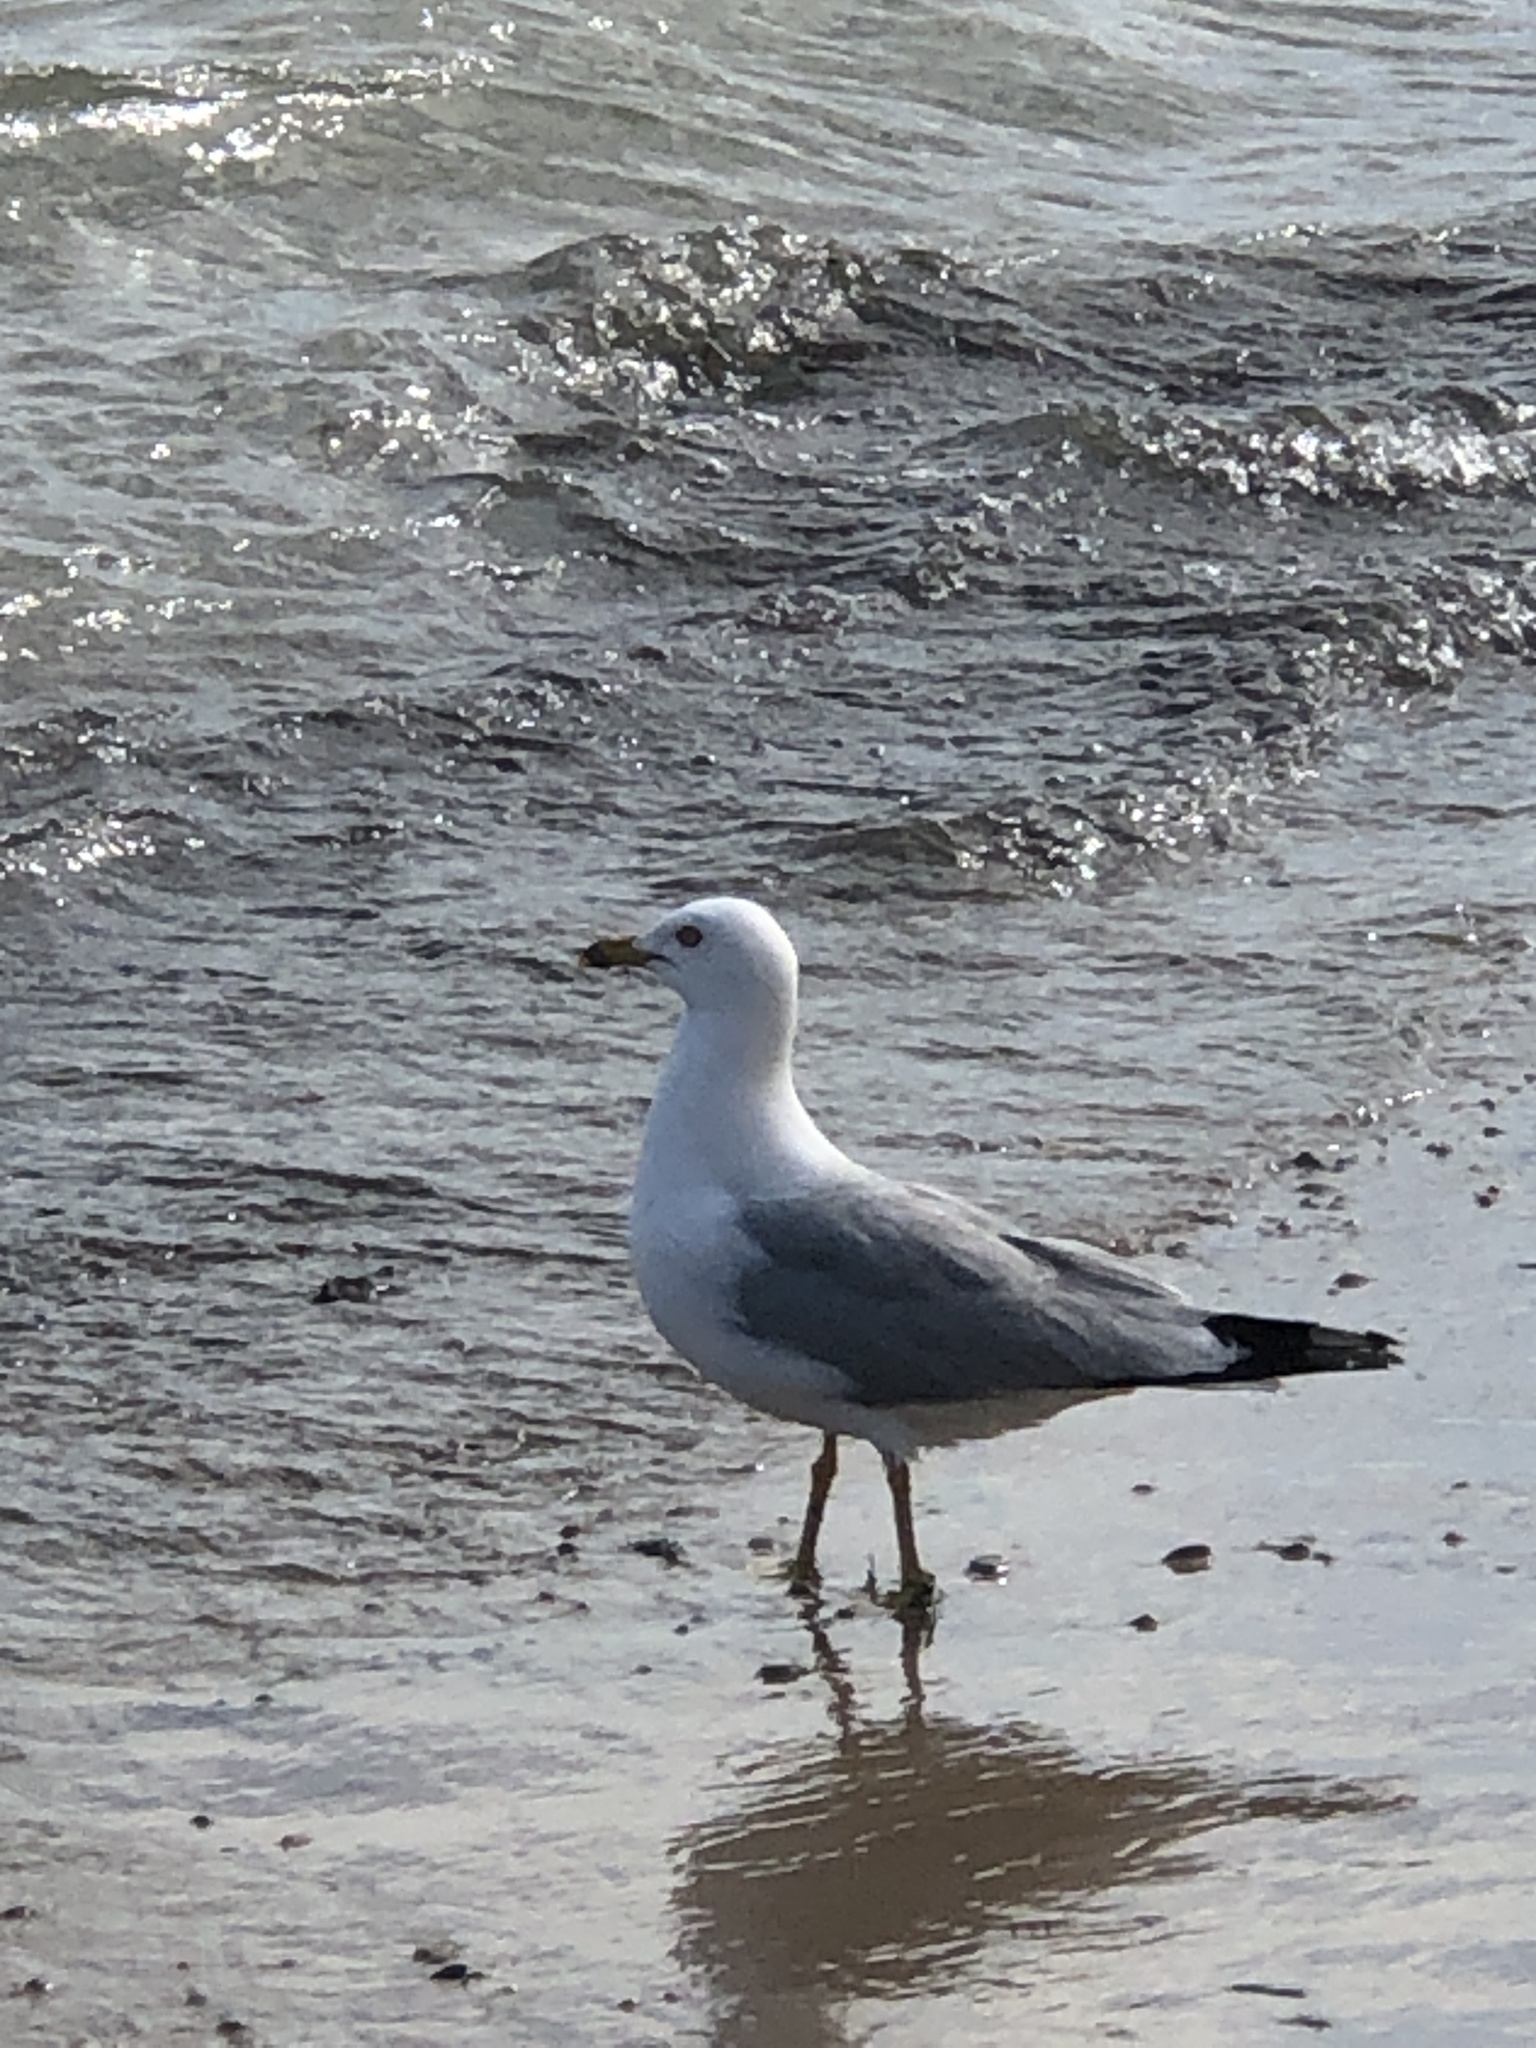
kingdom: Animalia
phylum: Chordata
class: Aves
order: Charadriiformes
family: Laridae
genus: Larus
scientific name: Larus delawarensis
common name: Ring-billed gull
